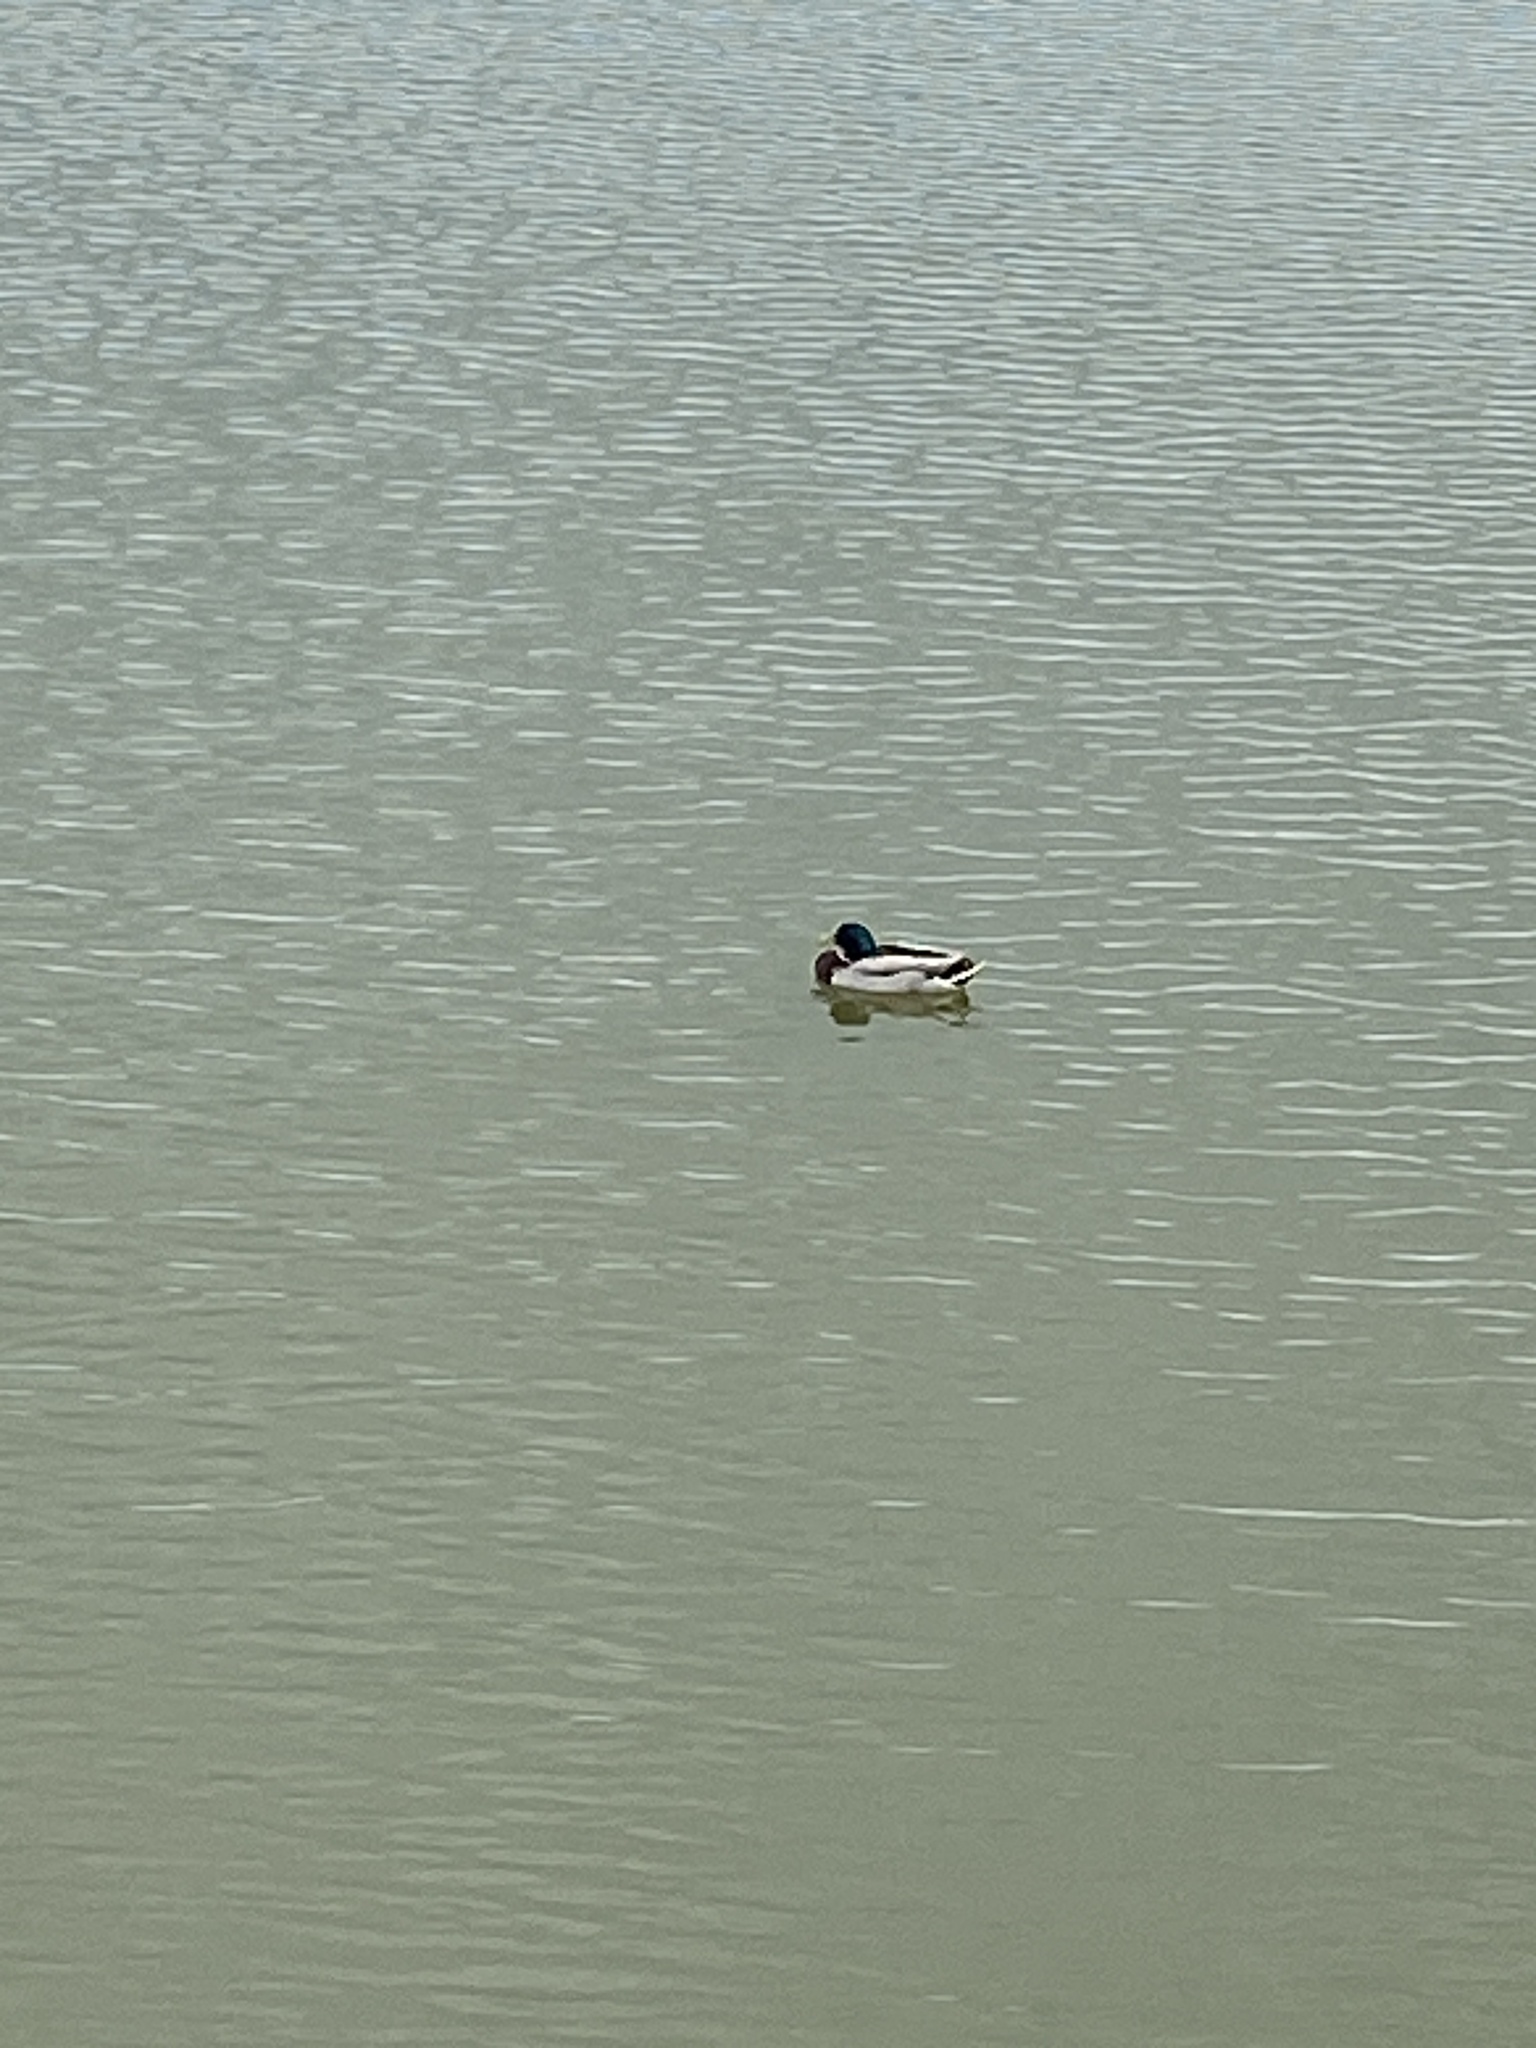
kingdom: Animalia
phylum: Chordata
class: Aves
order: Anseriformes
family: Anatidae
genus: Anas
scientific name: Anas platyrhynchos
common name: Mallard
